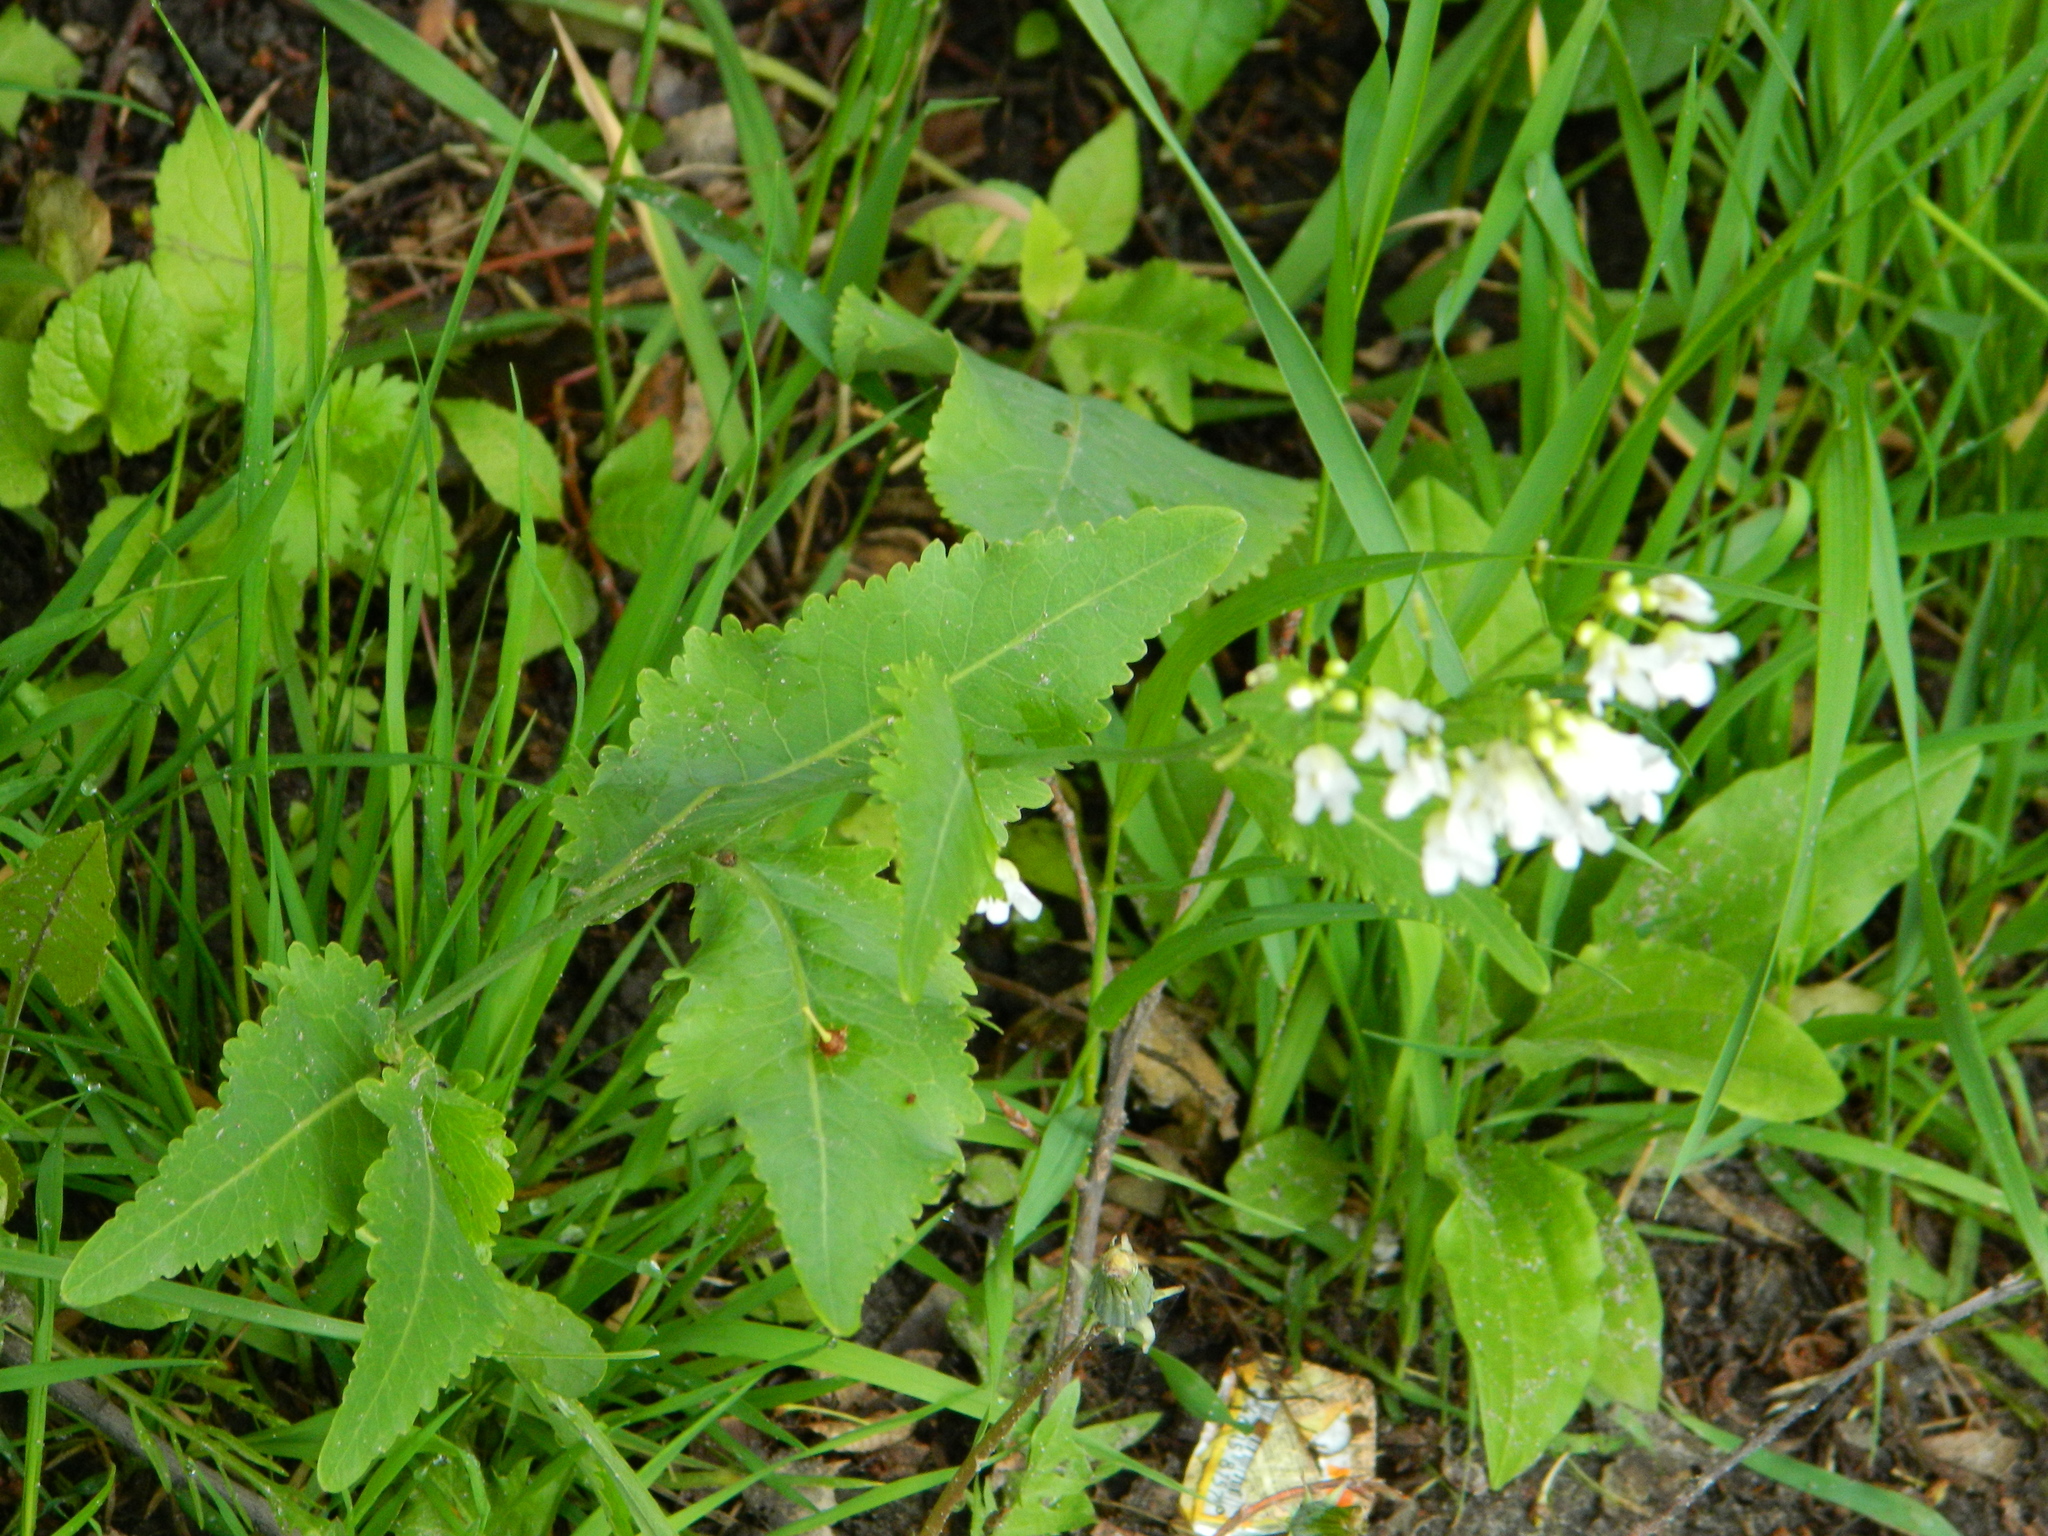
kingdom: Plantae
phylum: Tracheophyta
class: Magnoliopsida
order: Brassicales
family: Brassicaceae
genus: Armoracia
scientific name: Armoracia rusticana
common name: Horseradish
